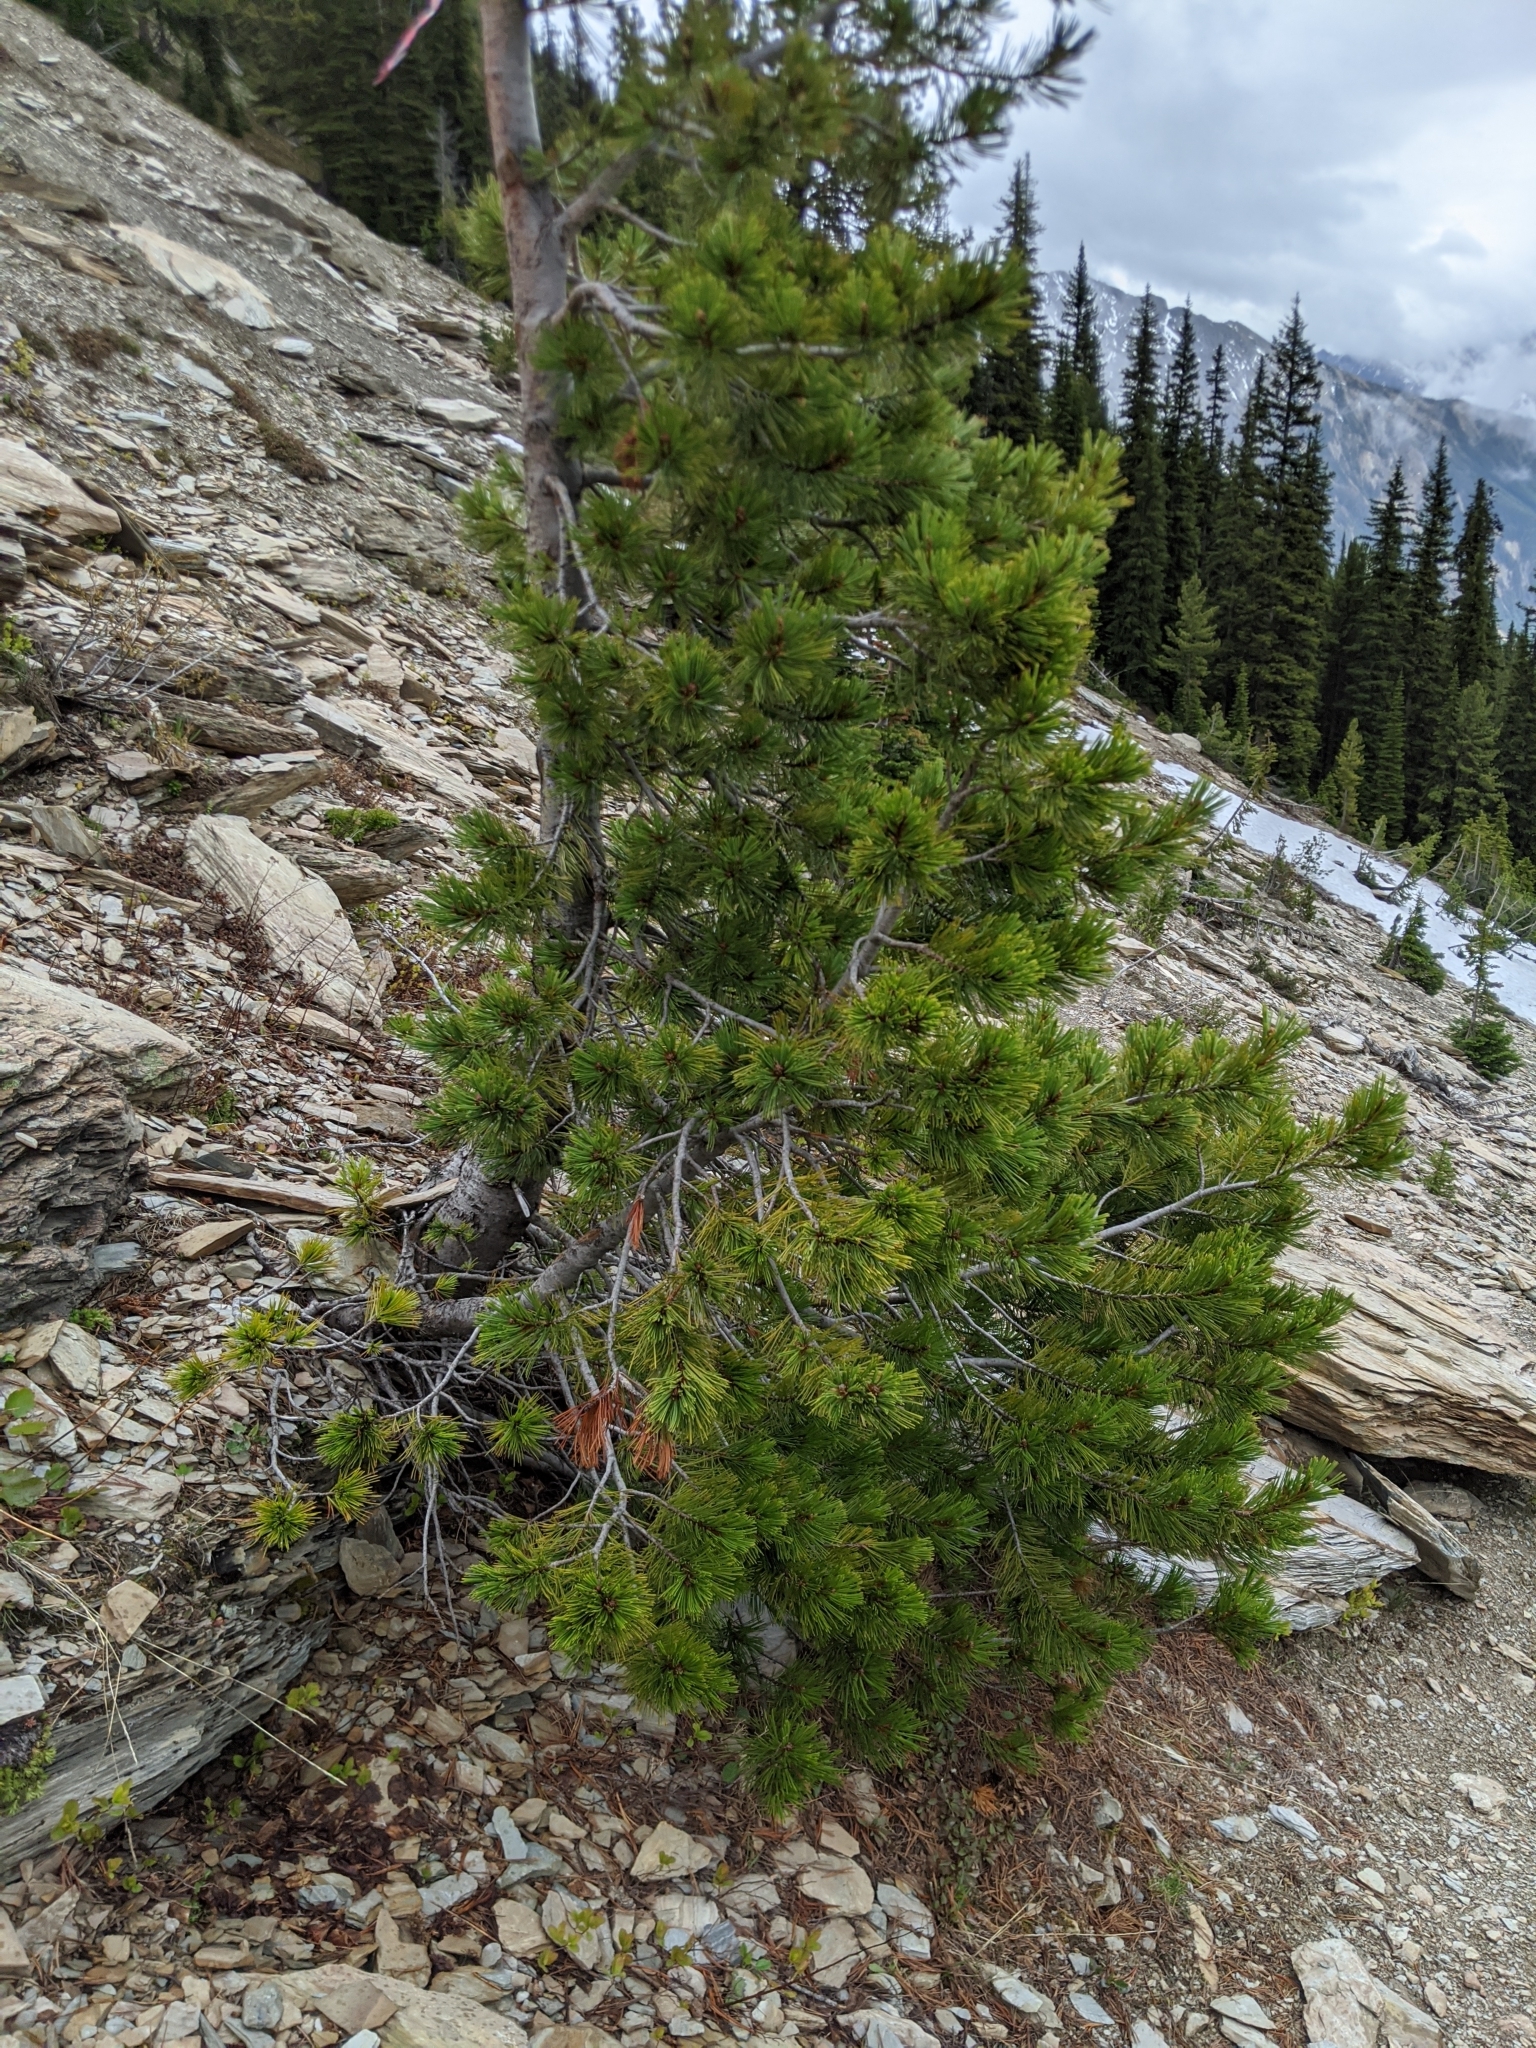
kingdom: Plantae
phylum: Tracheophyta
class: Pinopsida
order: Pinales
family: Pinaceae
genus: Pinus
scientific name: Pinus albicaulis
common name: Whitebark pine
